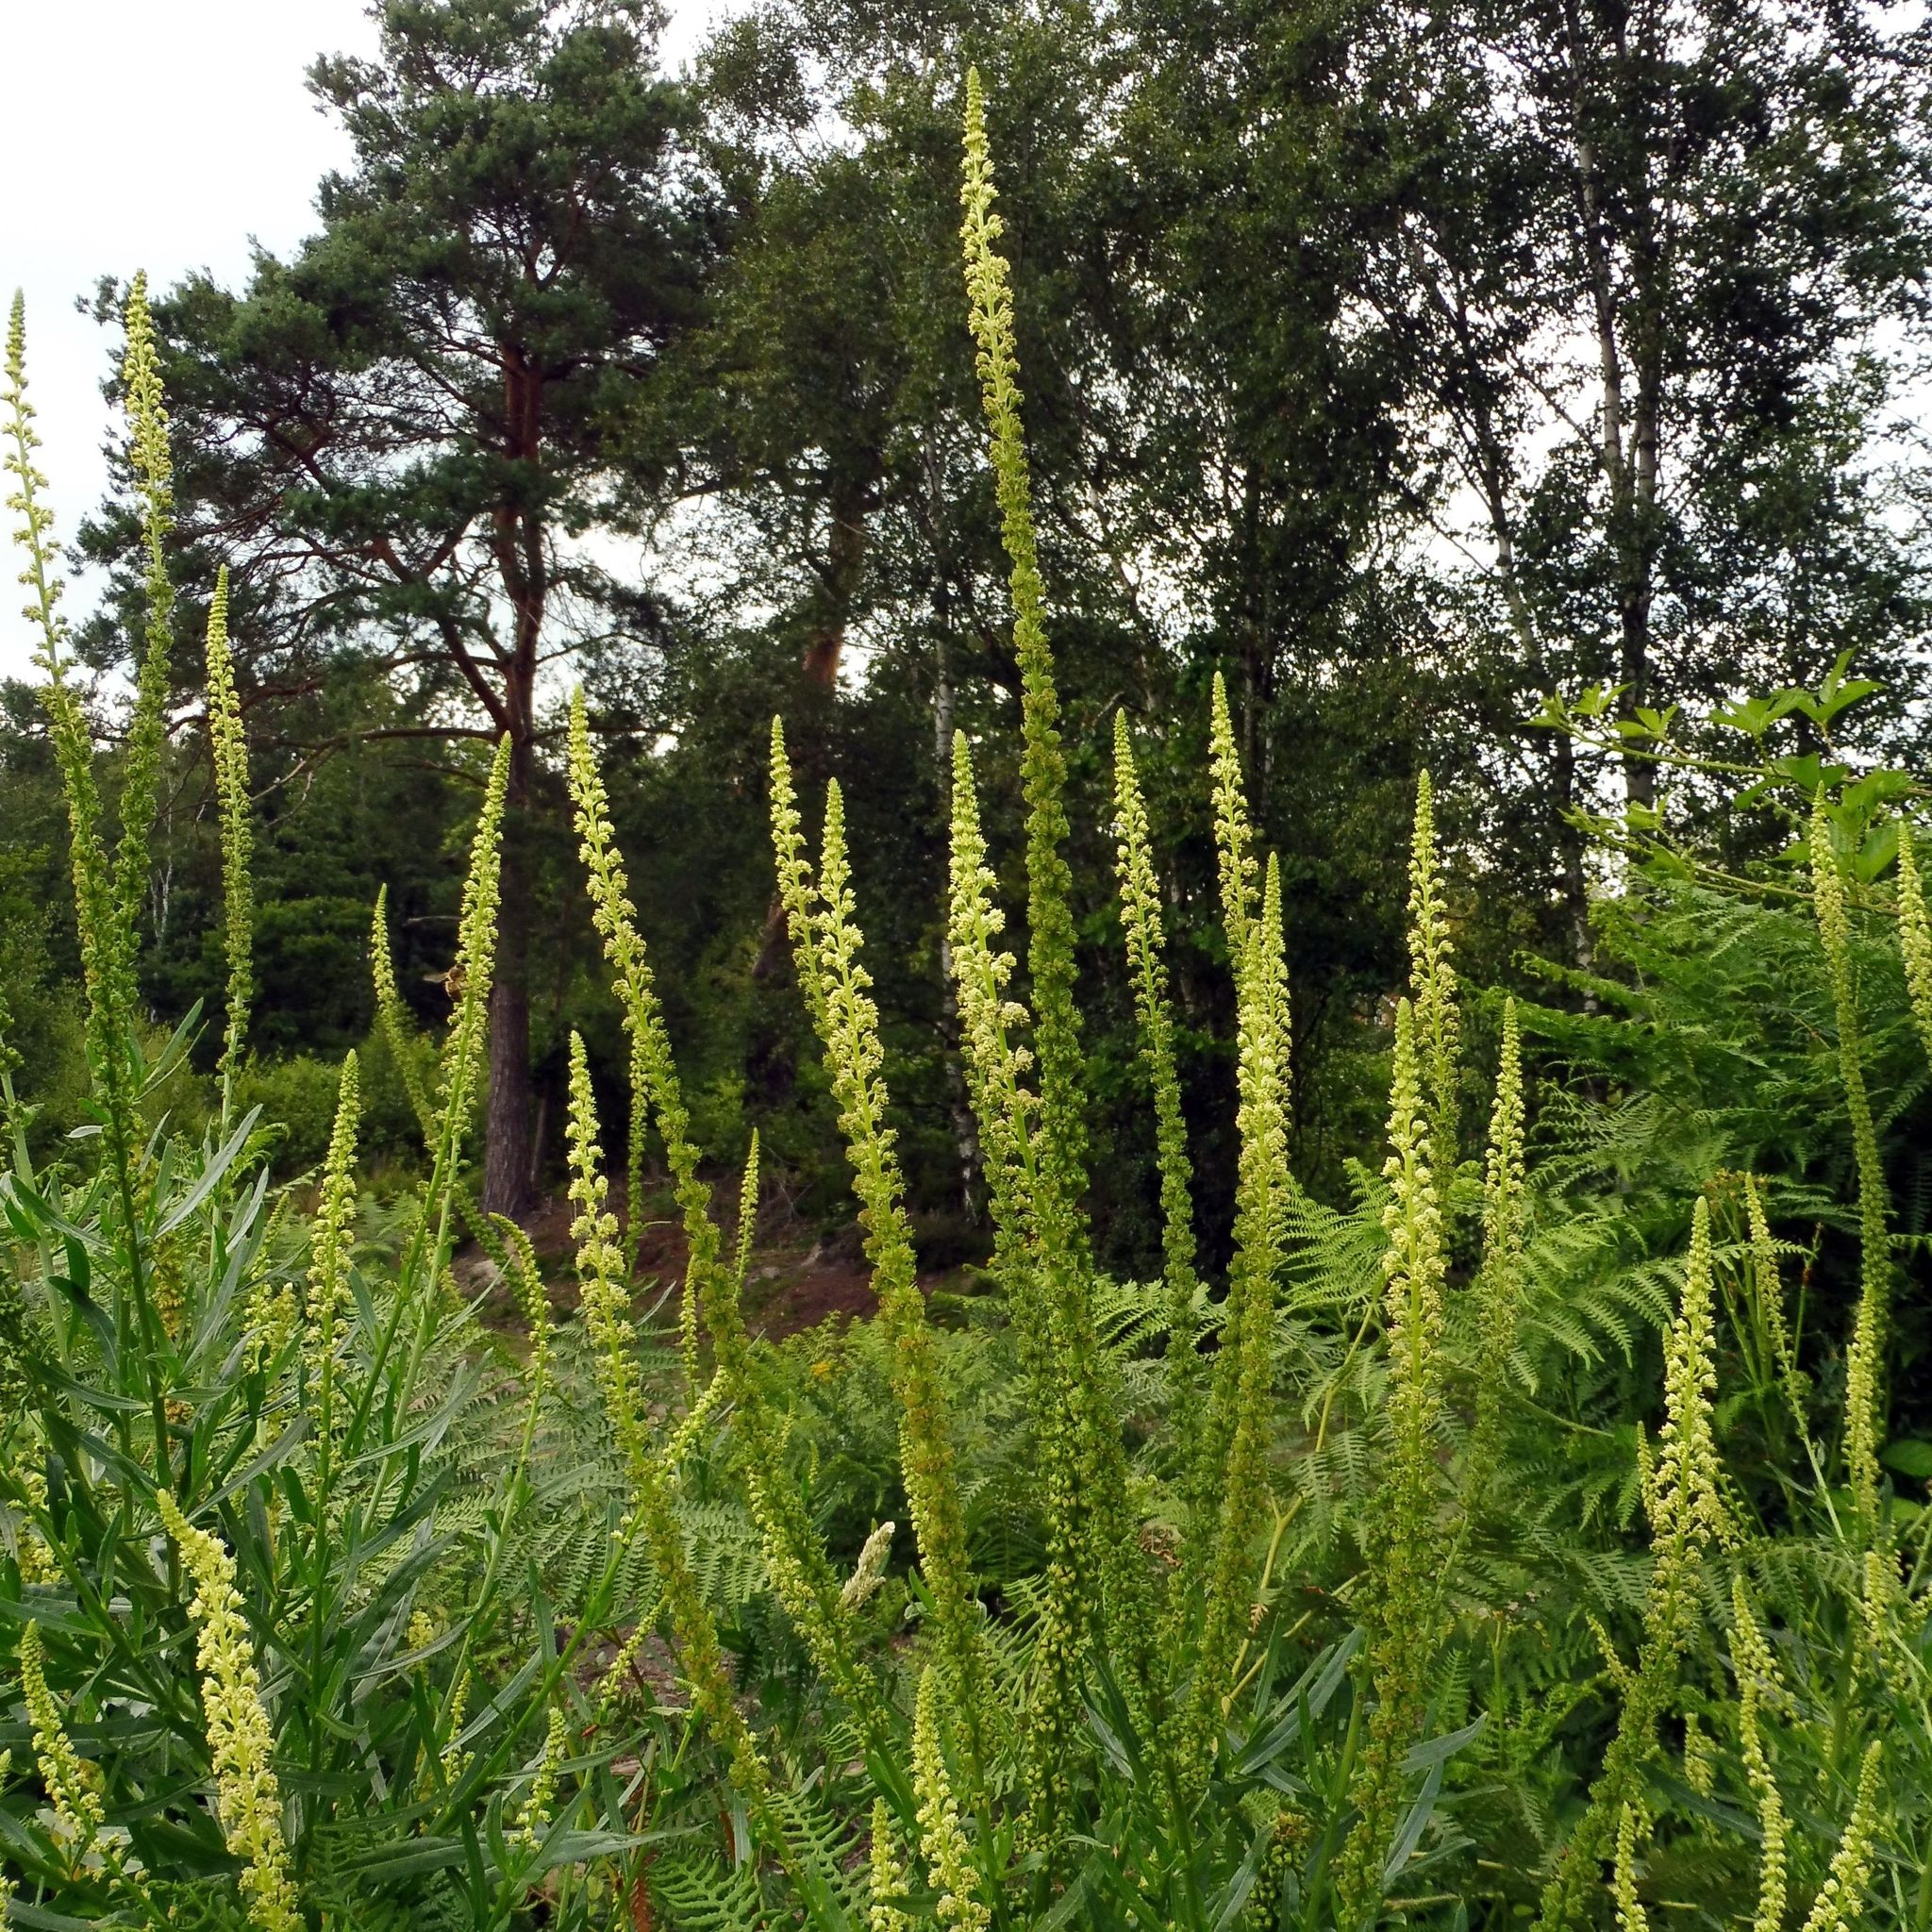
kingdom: Plantae
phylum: Tracheophyta
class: Magnoliopsida
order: Brassicales
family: Resedaceae
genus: Reseda
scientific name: Reseda luteola
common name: Weld
